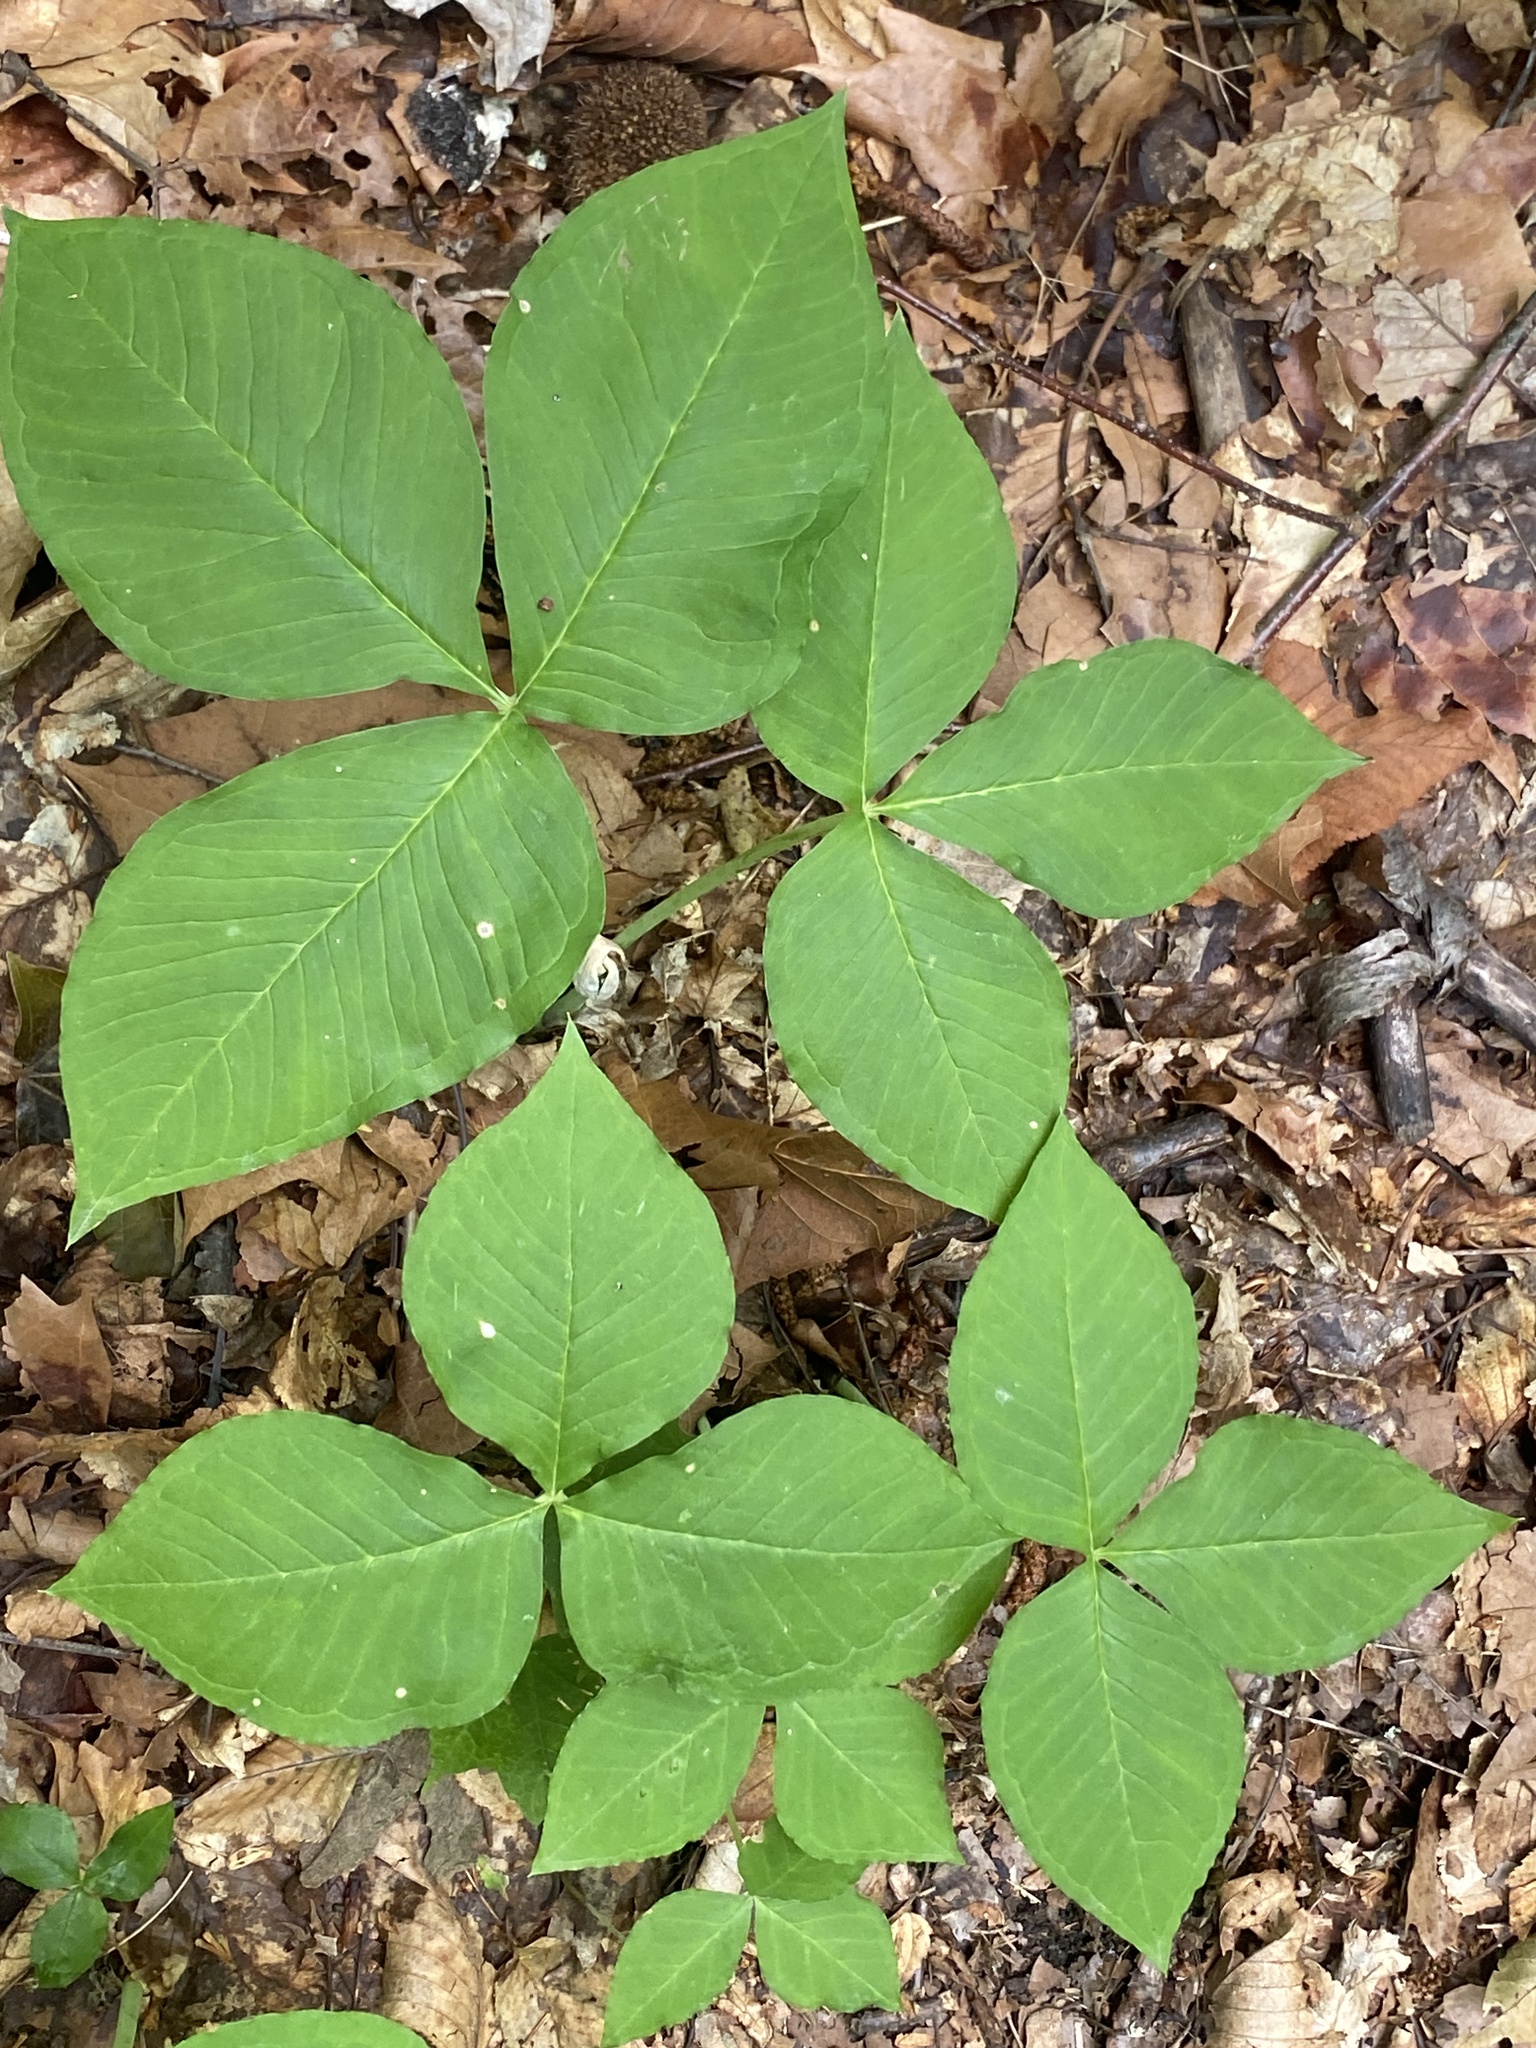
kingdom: Plantae
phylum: Tracheophyta
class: Liliopsida
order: Alismatales
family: Araceae
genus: Arisaema
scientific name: Arisaema triphyllum
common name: Jack-in-the-pulpit
